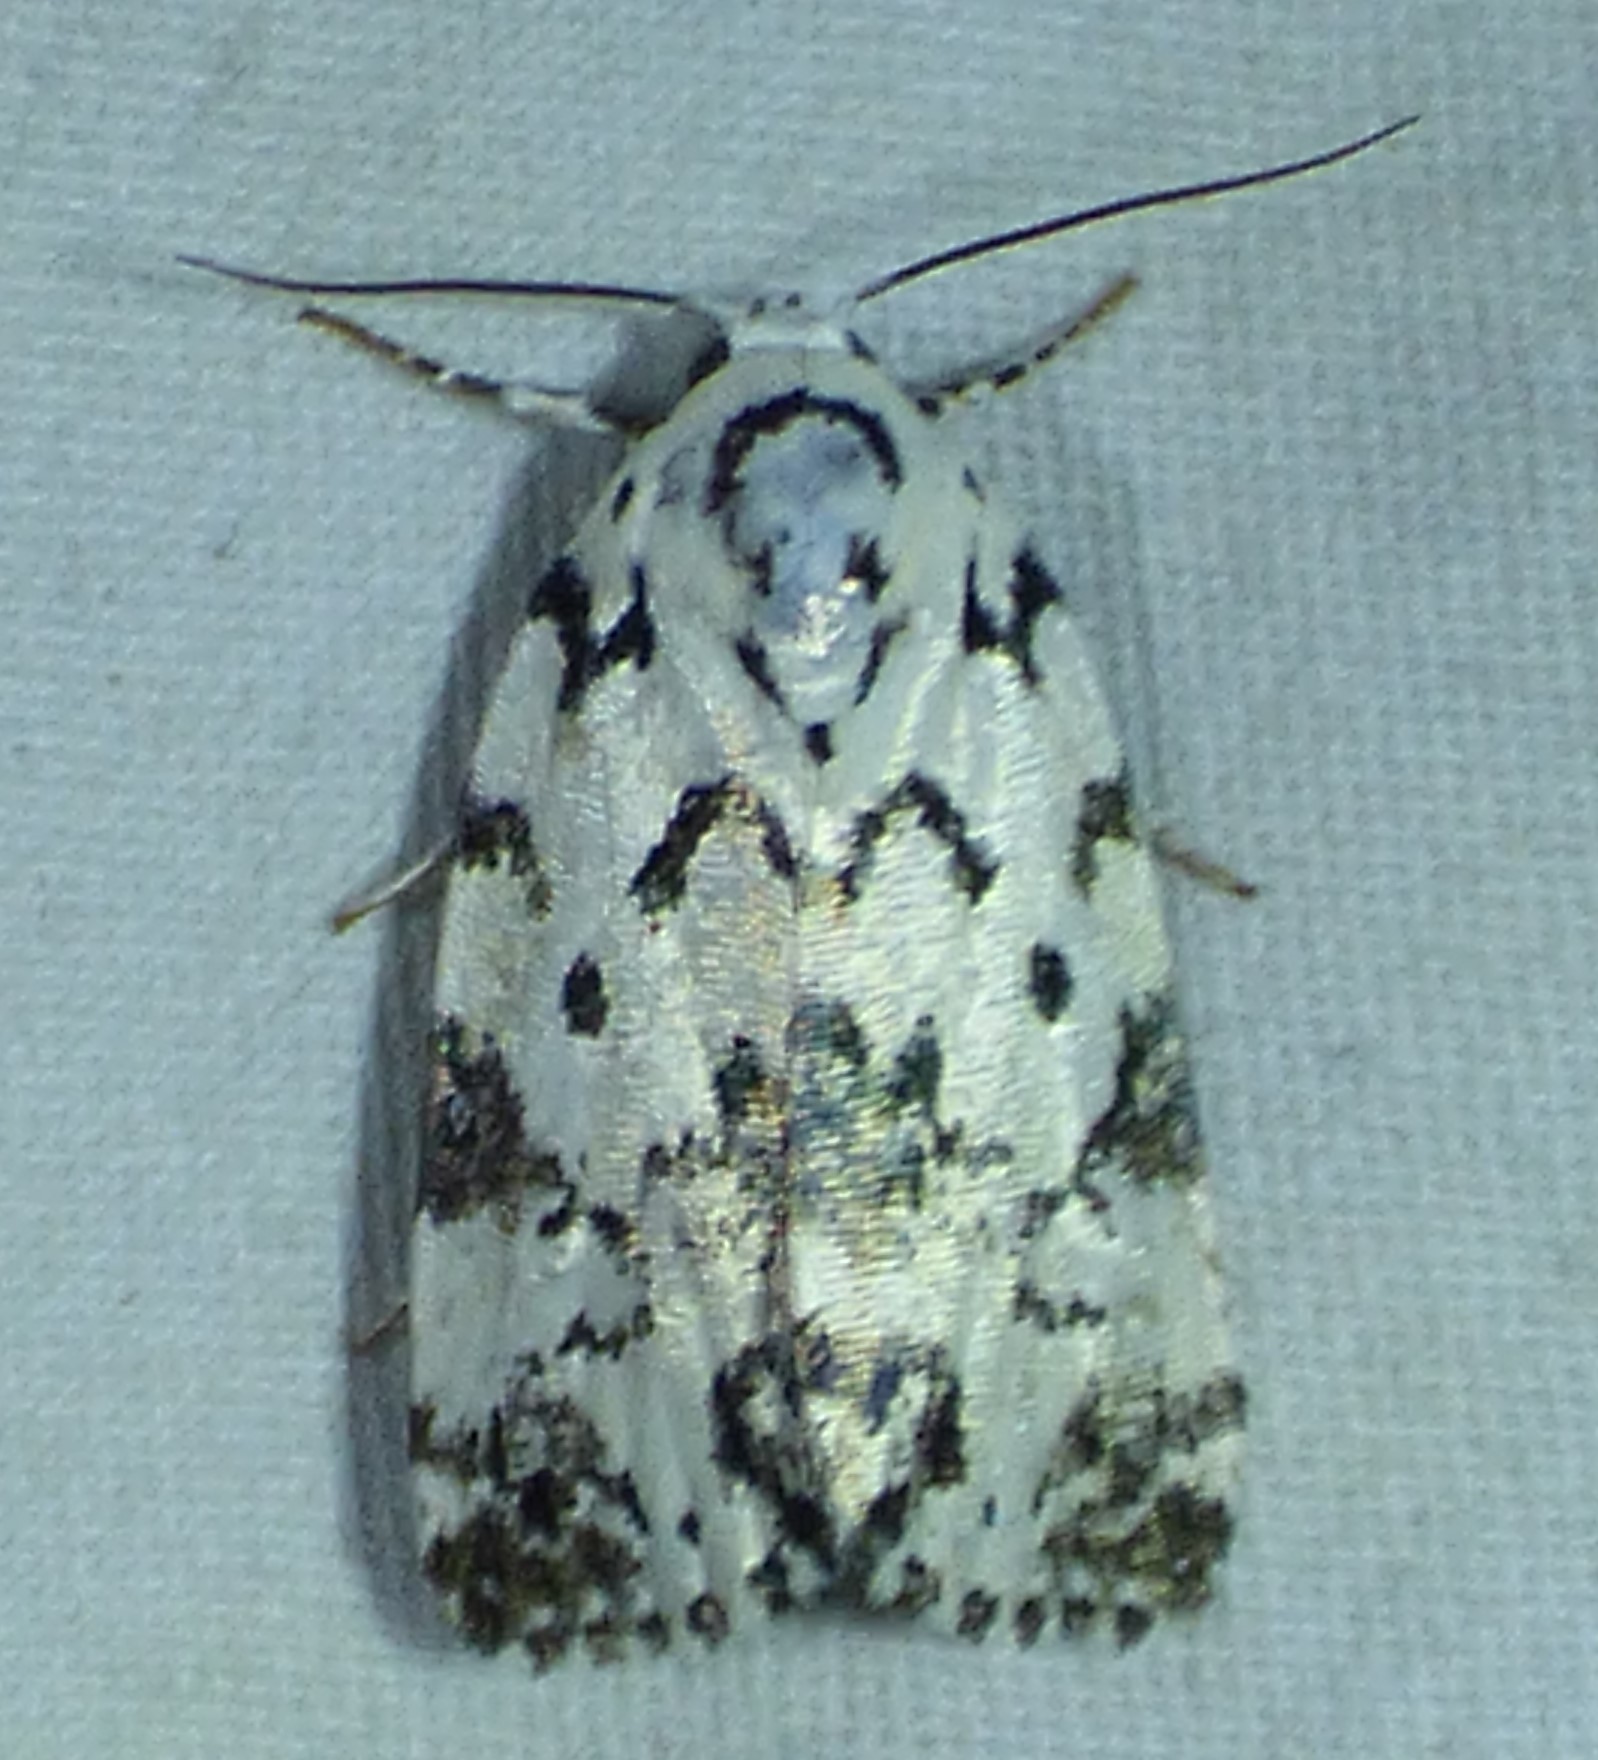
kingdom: Animalia
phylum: Arthropoda
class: Insecta
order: Lepidoptera
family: Noctuidae
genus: Polygrammate
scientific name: Polygrammate hebraeicum
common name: Hebrew moth
